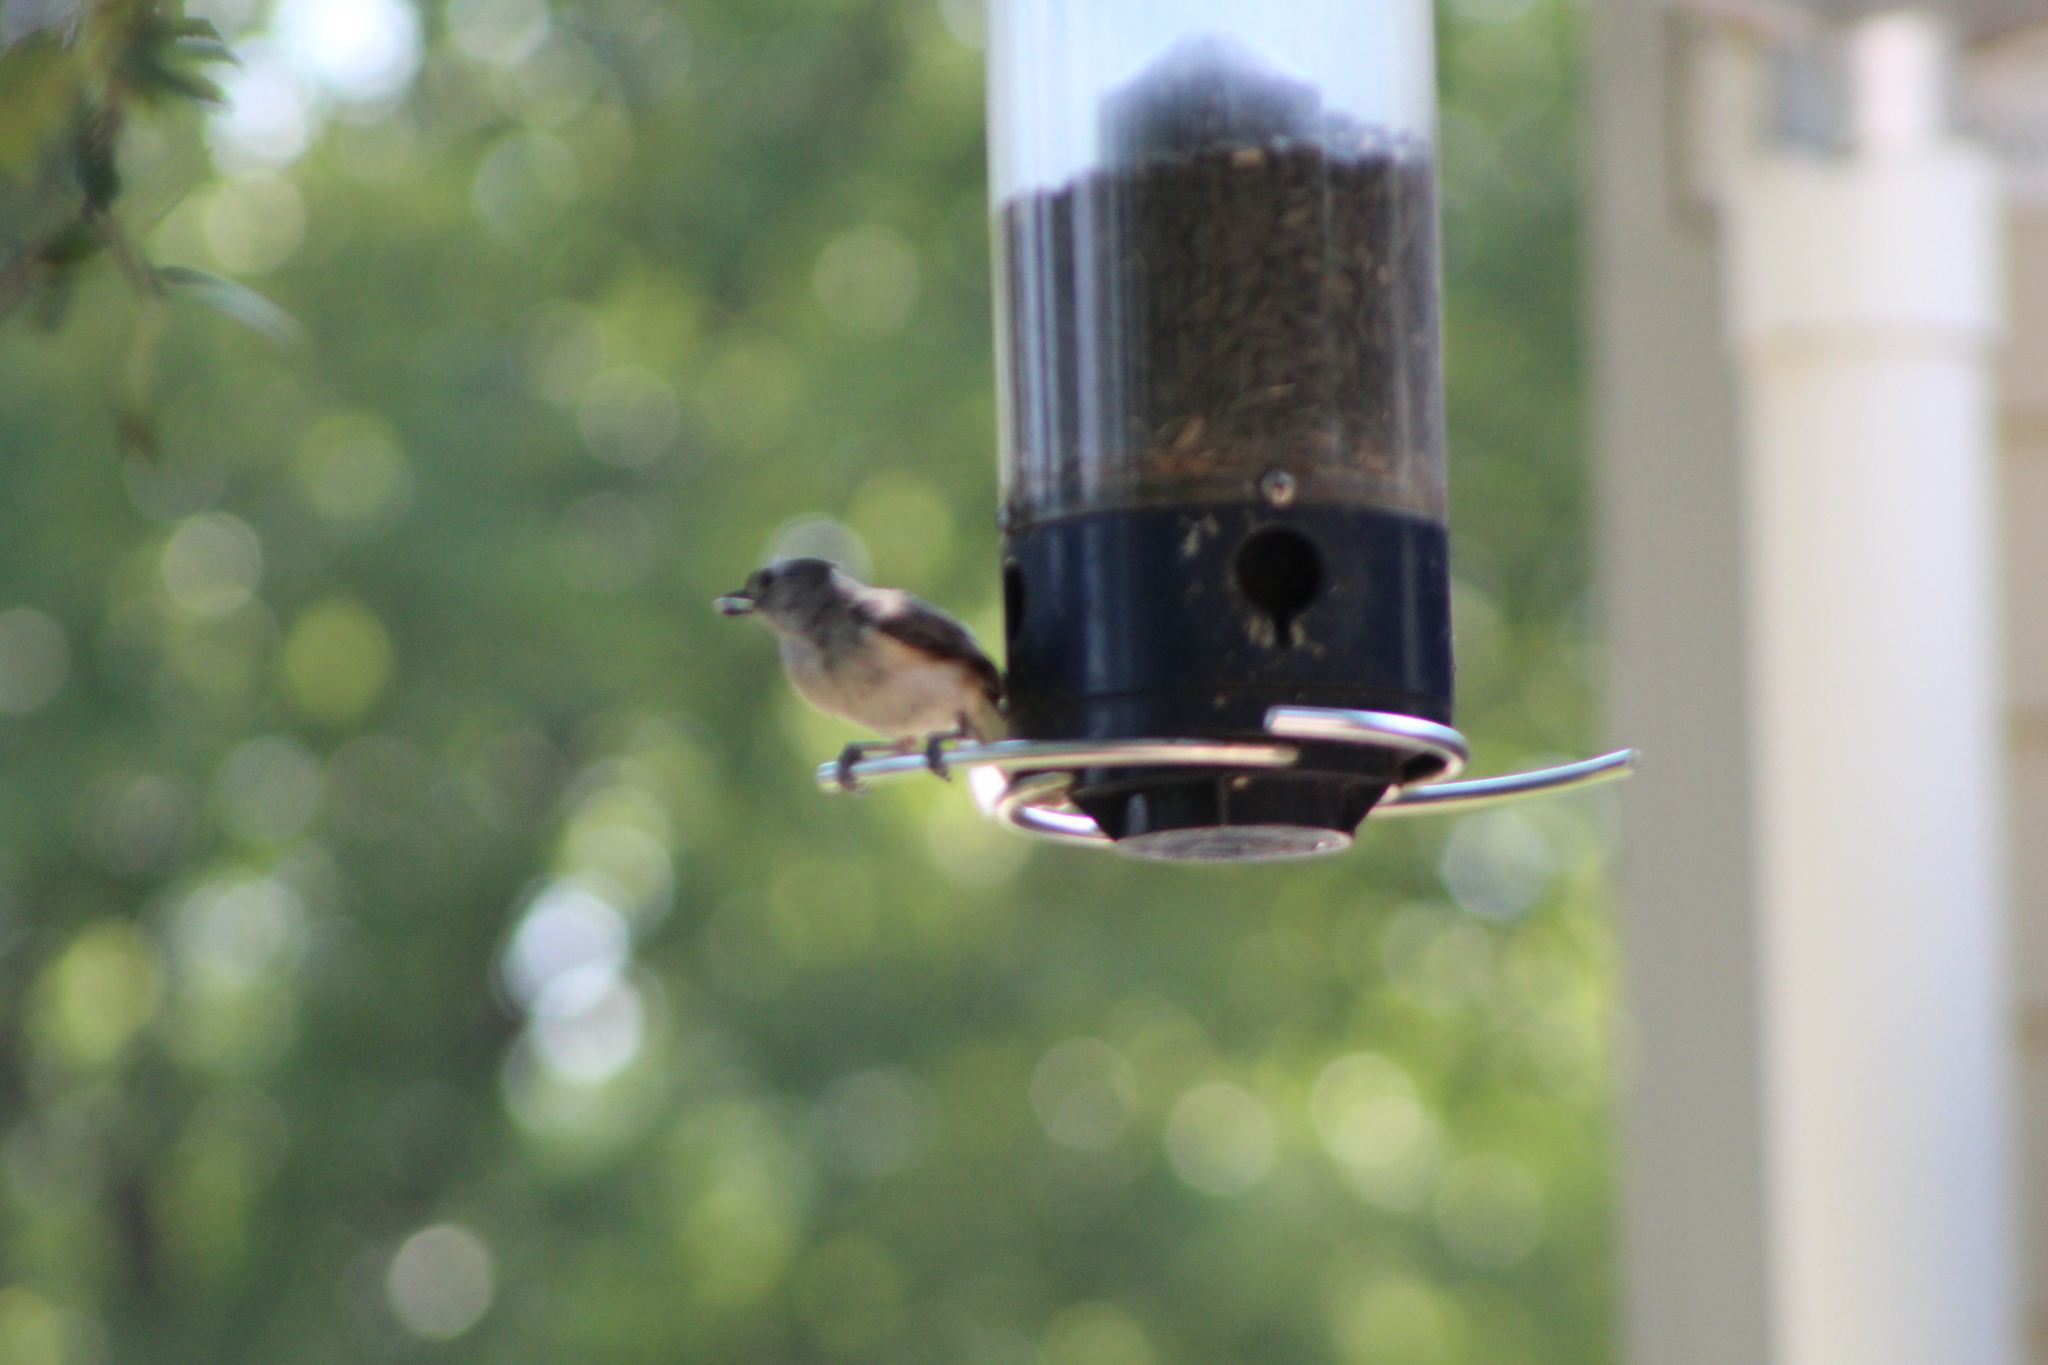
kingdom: Animalia
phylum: Chordata
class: Aves
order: Passeriformes
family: Paridae
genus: Baeolophus
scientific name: Baeolophus bicolor
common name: Tufted titmouse
